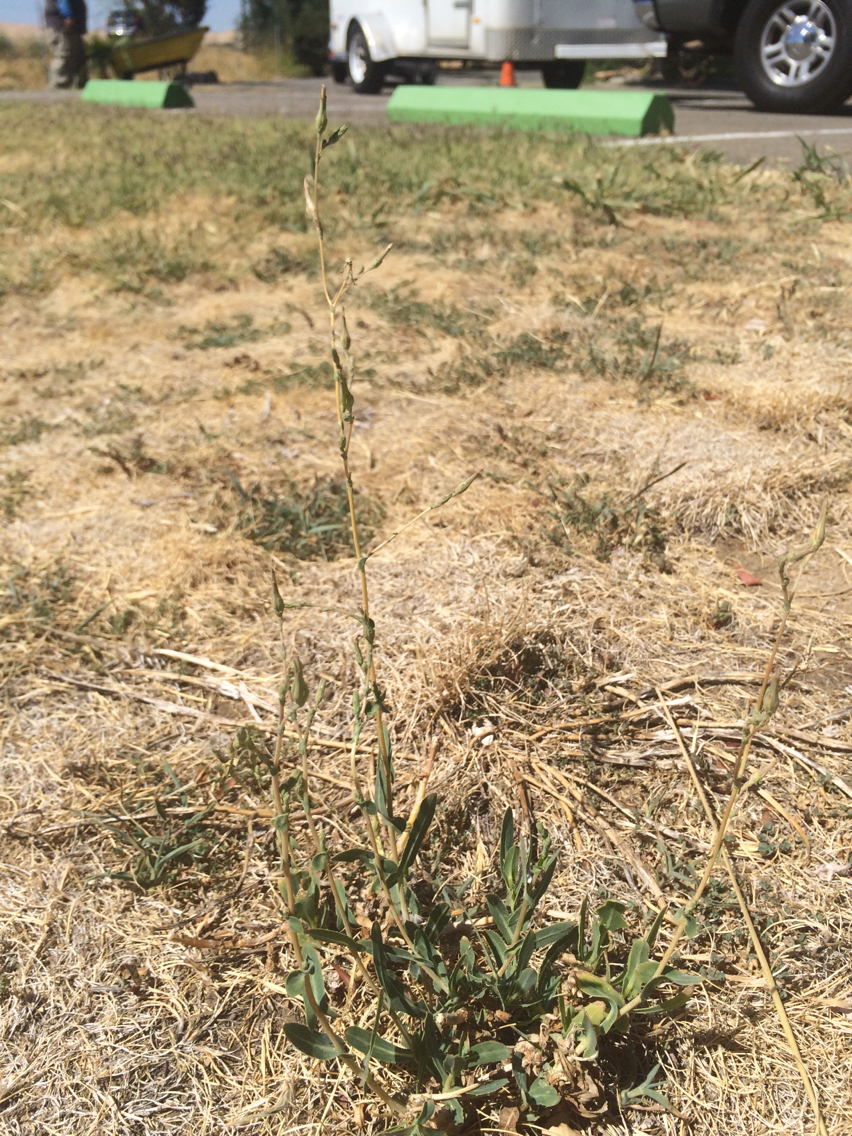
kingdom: Plantae
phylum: Tracheophyta
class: Magnoliopsida
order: Asterales
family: Asteraceae
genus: Lactuca
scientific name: Lactuca serriola
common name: Prickly lettuce
